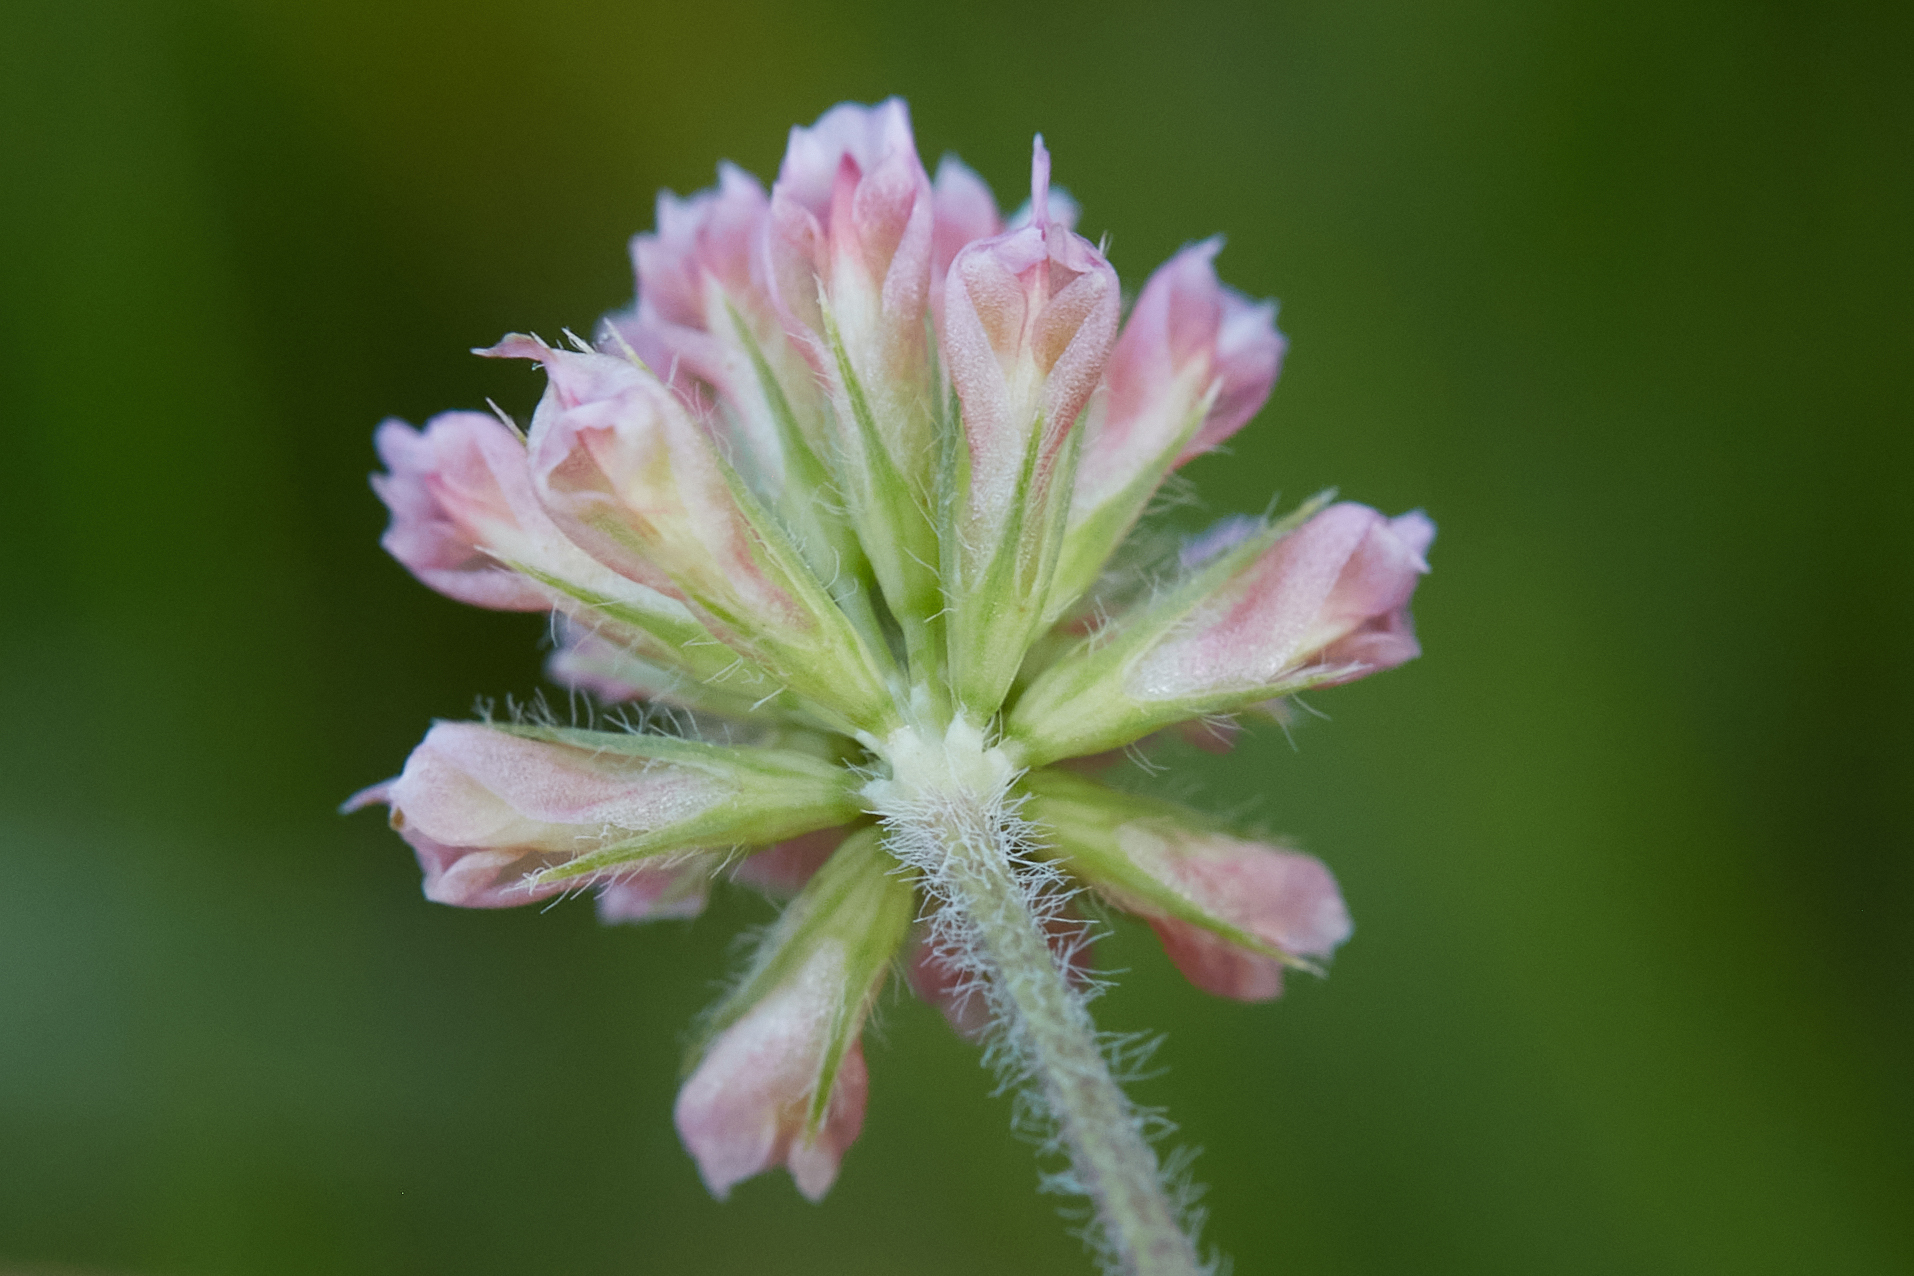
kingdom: Plantae
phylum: Tracheophyta
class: Magnoliopsida
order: Fabales
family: Fabaceae
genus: Trifolium
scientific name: Trifolium bifidum
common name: Notch-leaf clover
